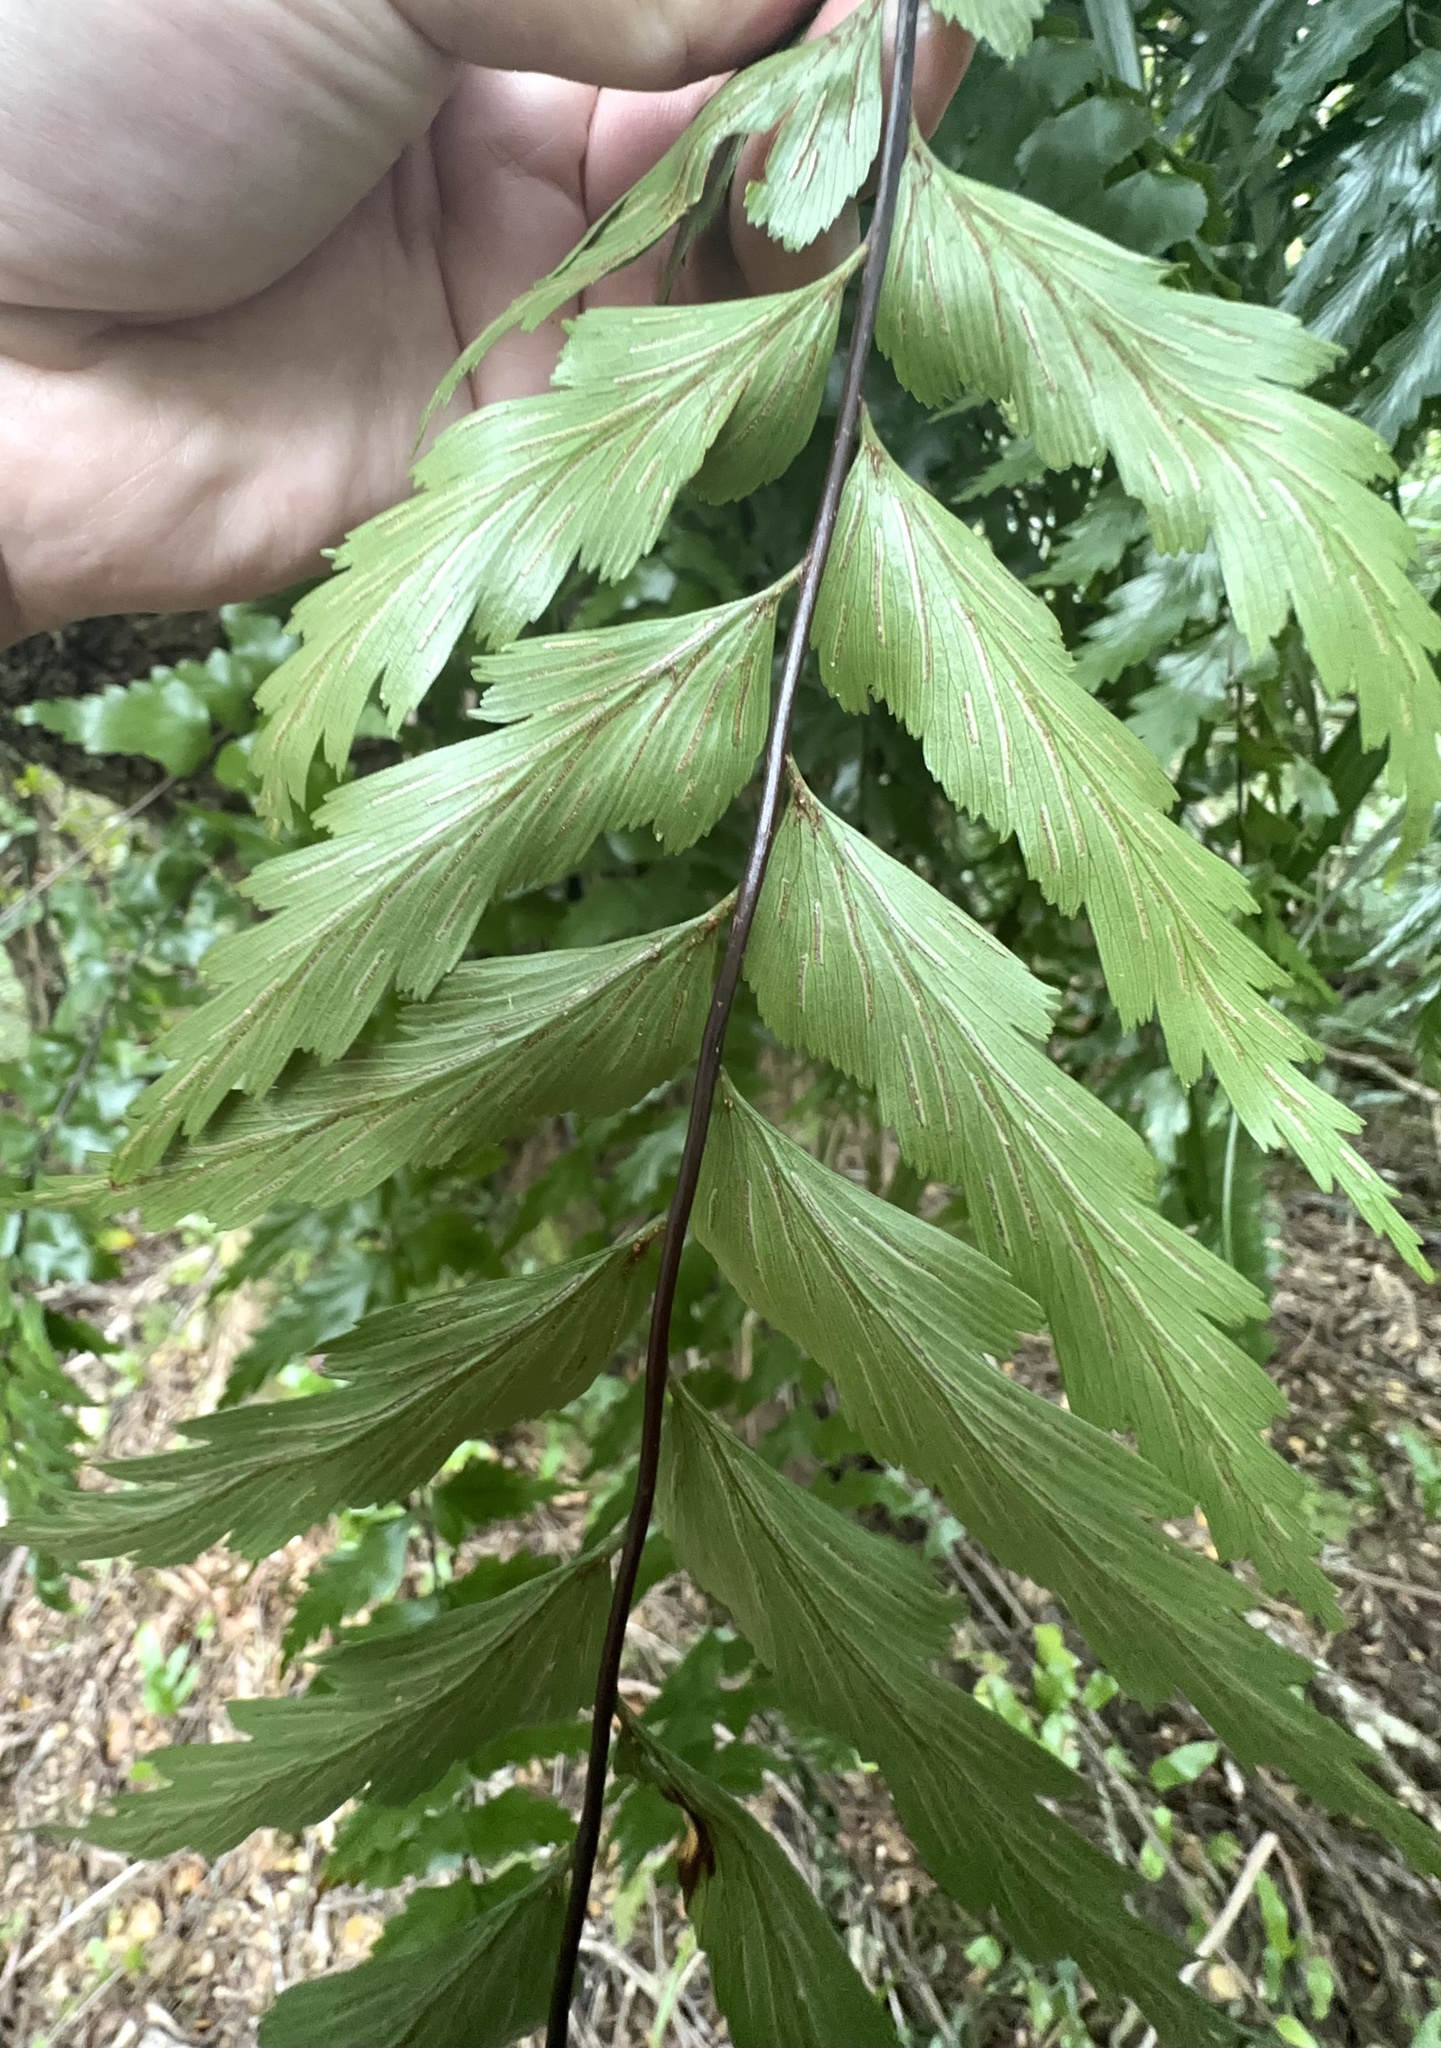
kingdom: Plantae
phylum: Tracheophyta
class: Polypodiopsida
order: Polypodiales
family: Aspleniaceae
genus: Asplenium
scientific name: Asplenium polyodon
